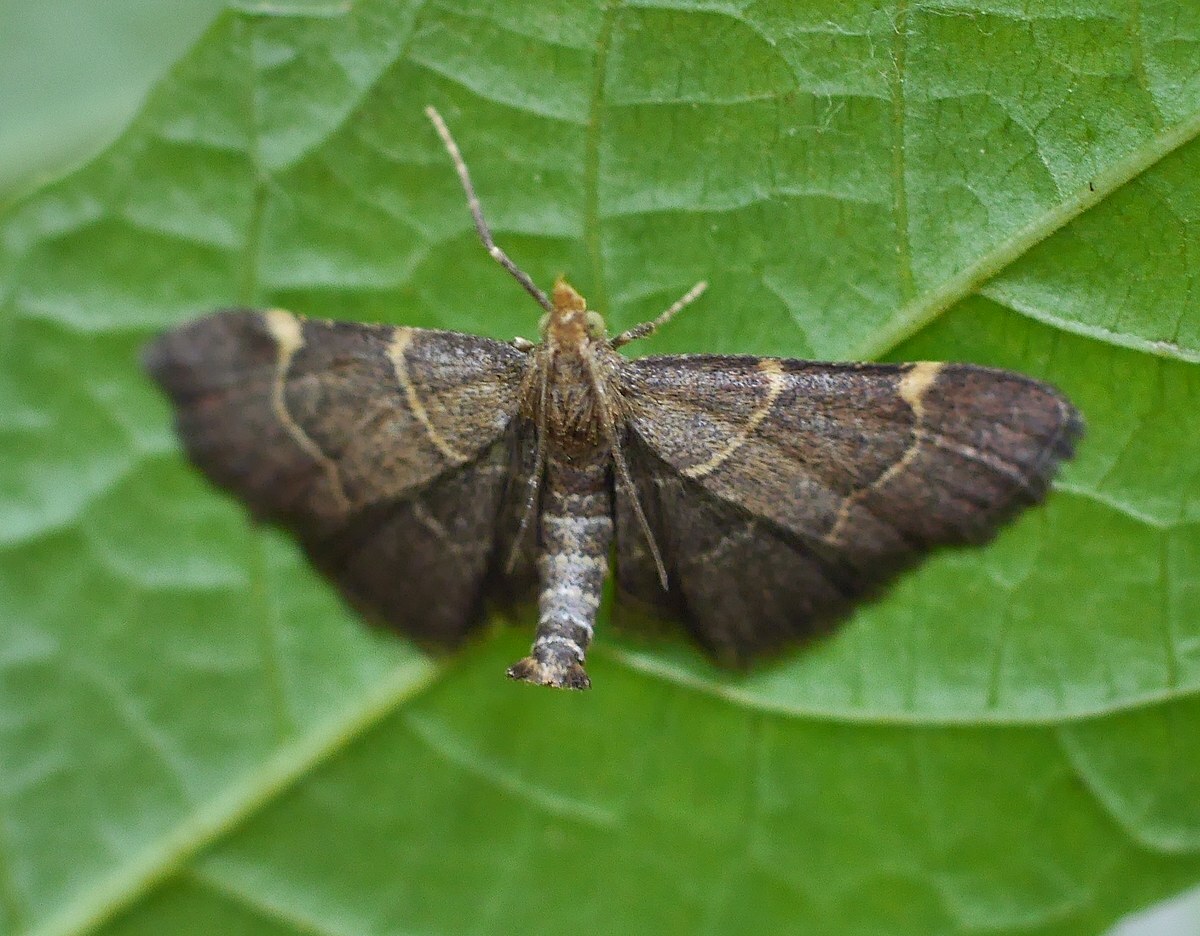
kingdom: Animalia
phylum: Arthropoda
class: Insecta
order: Lepidoptera
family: Pyralidae
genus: Herculia
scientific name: Herculia rubidalis
